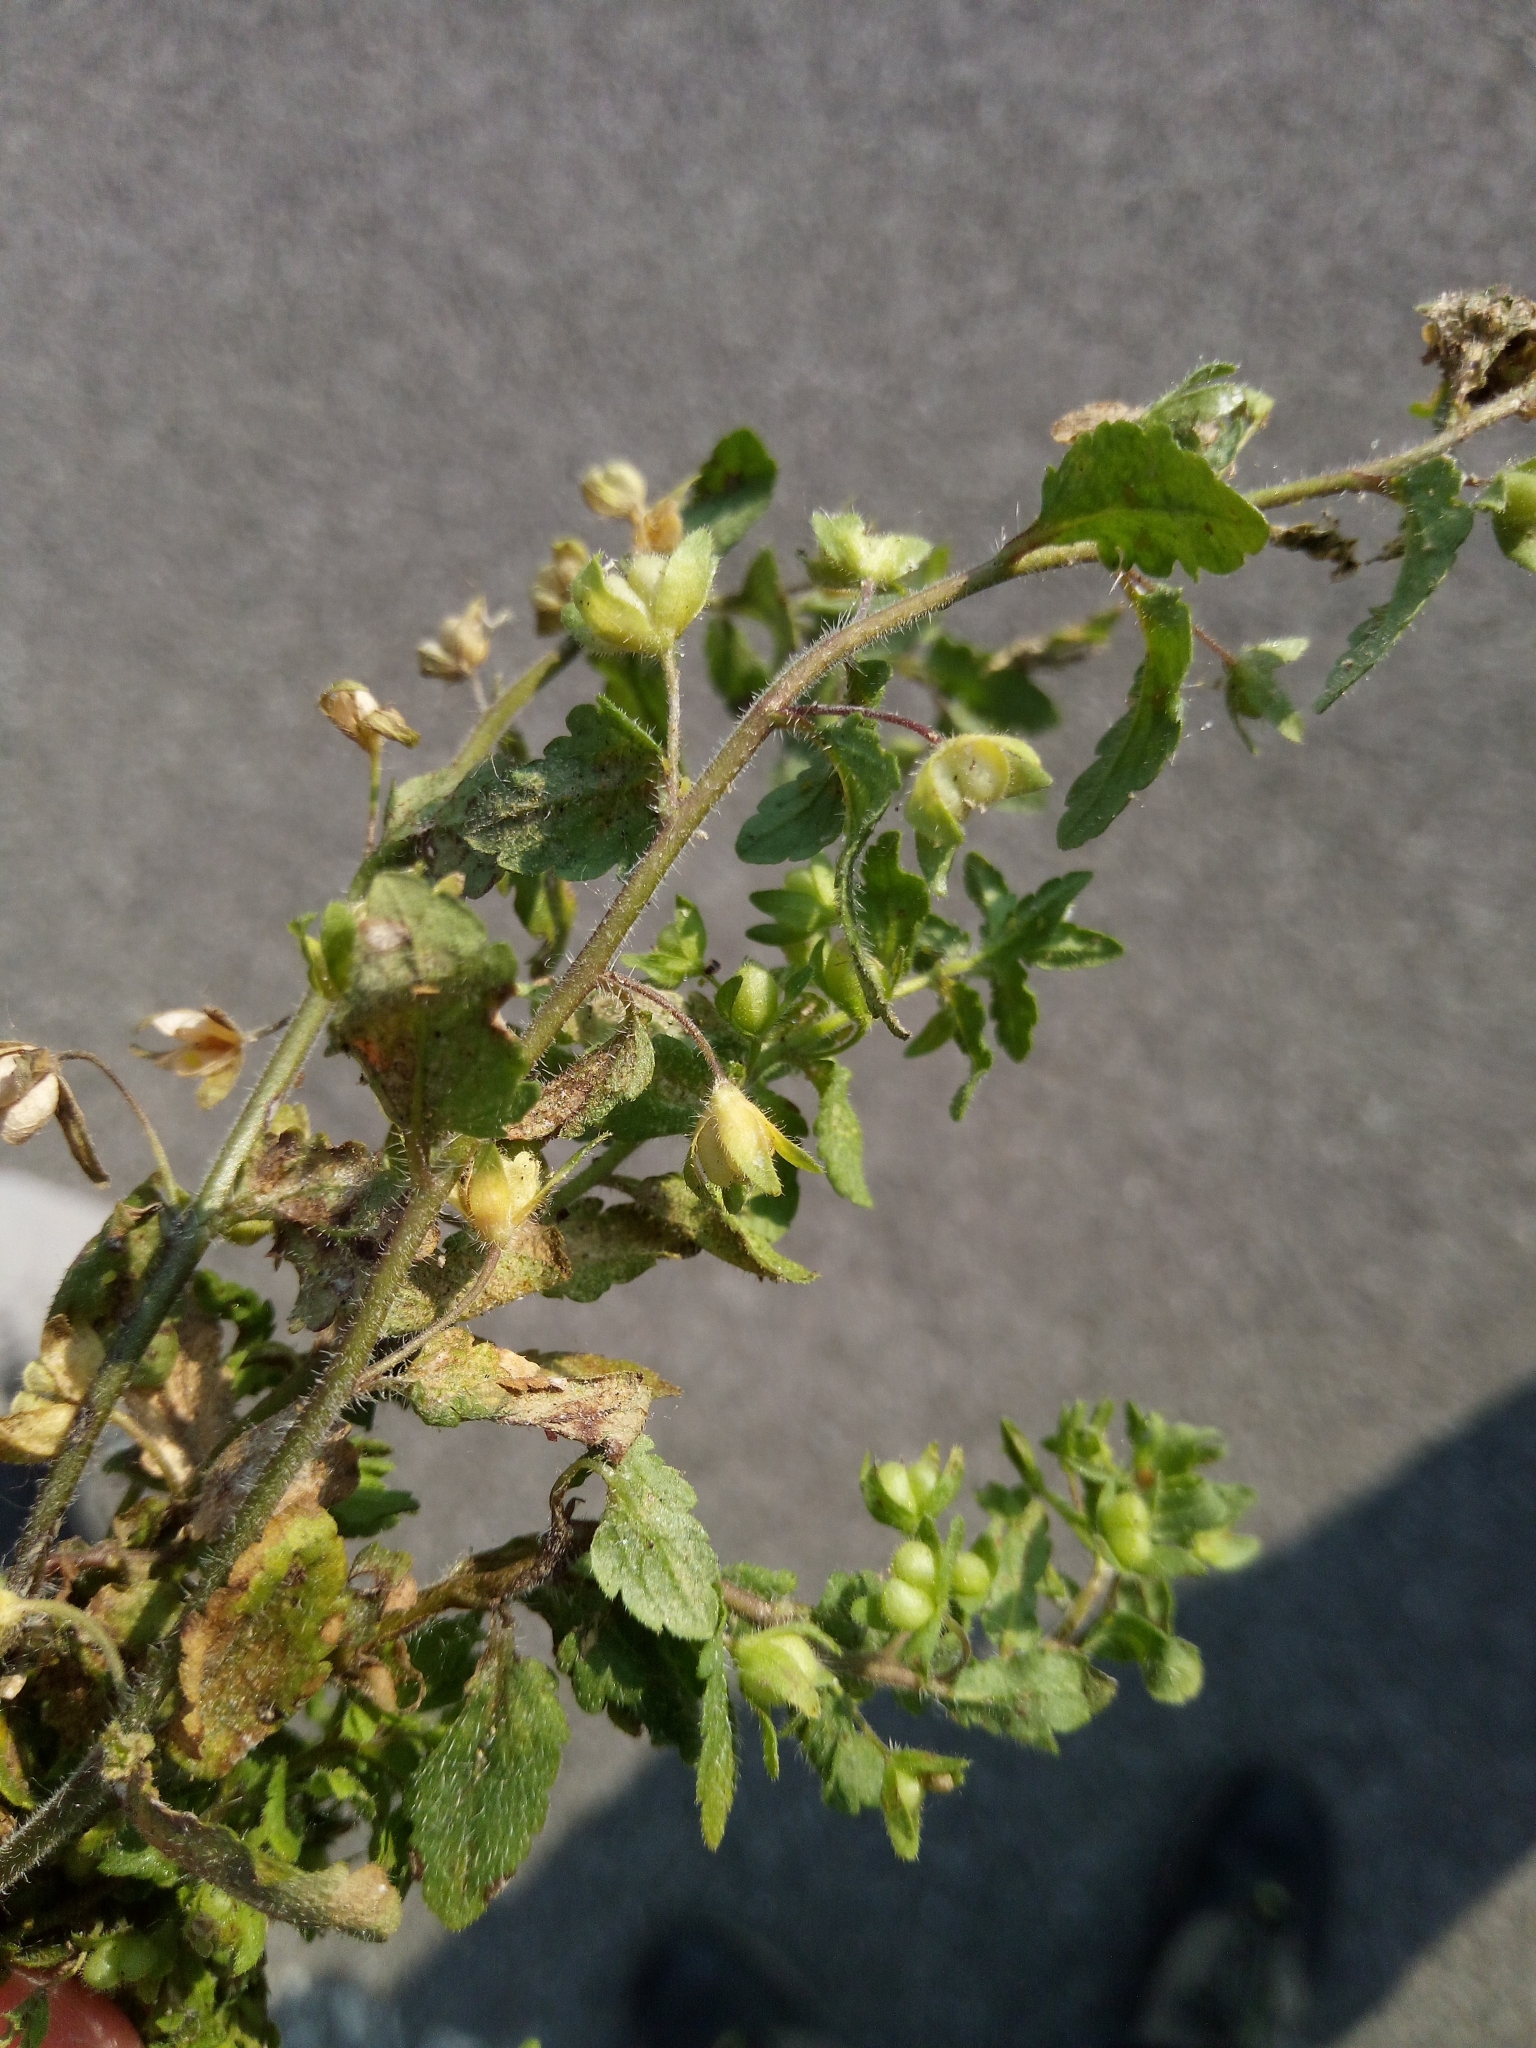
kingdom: Plantae
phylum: Tracheophyta
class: Magnoliopsida
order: Lamiales
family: Plantaginaceae
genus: Veronica
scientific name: Veronica agrestis
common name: Green field-speedwell
